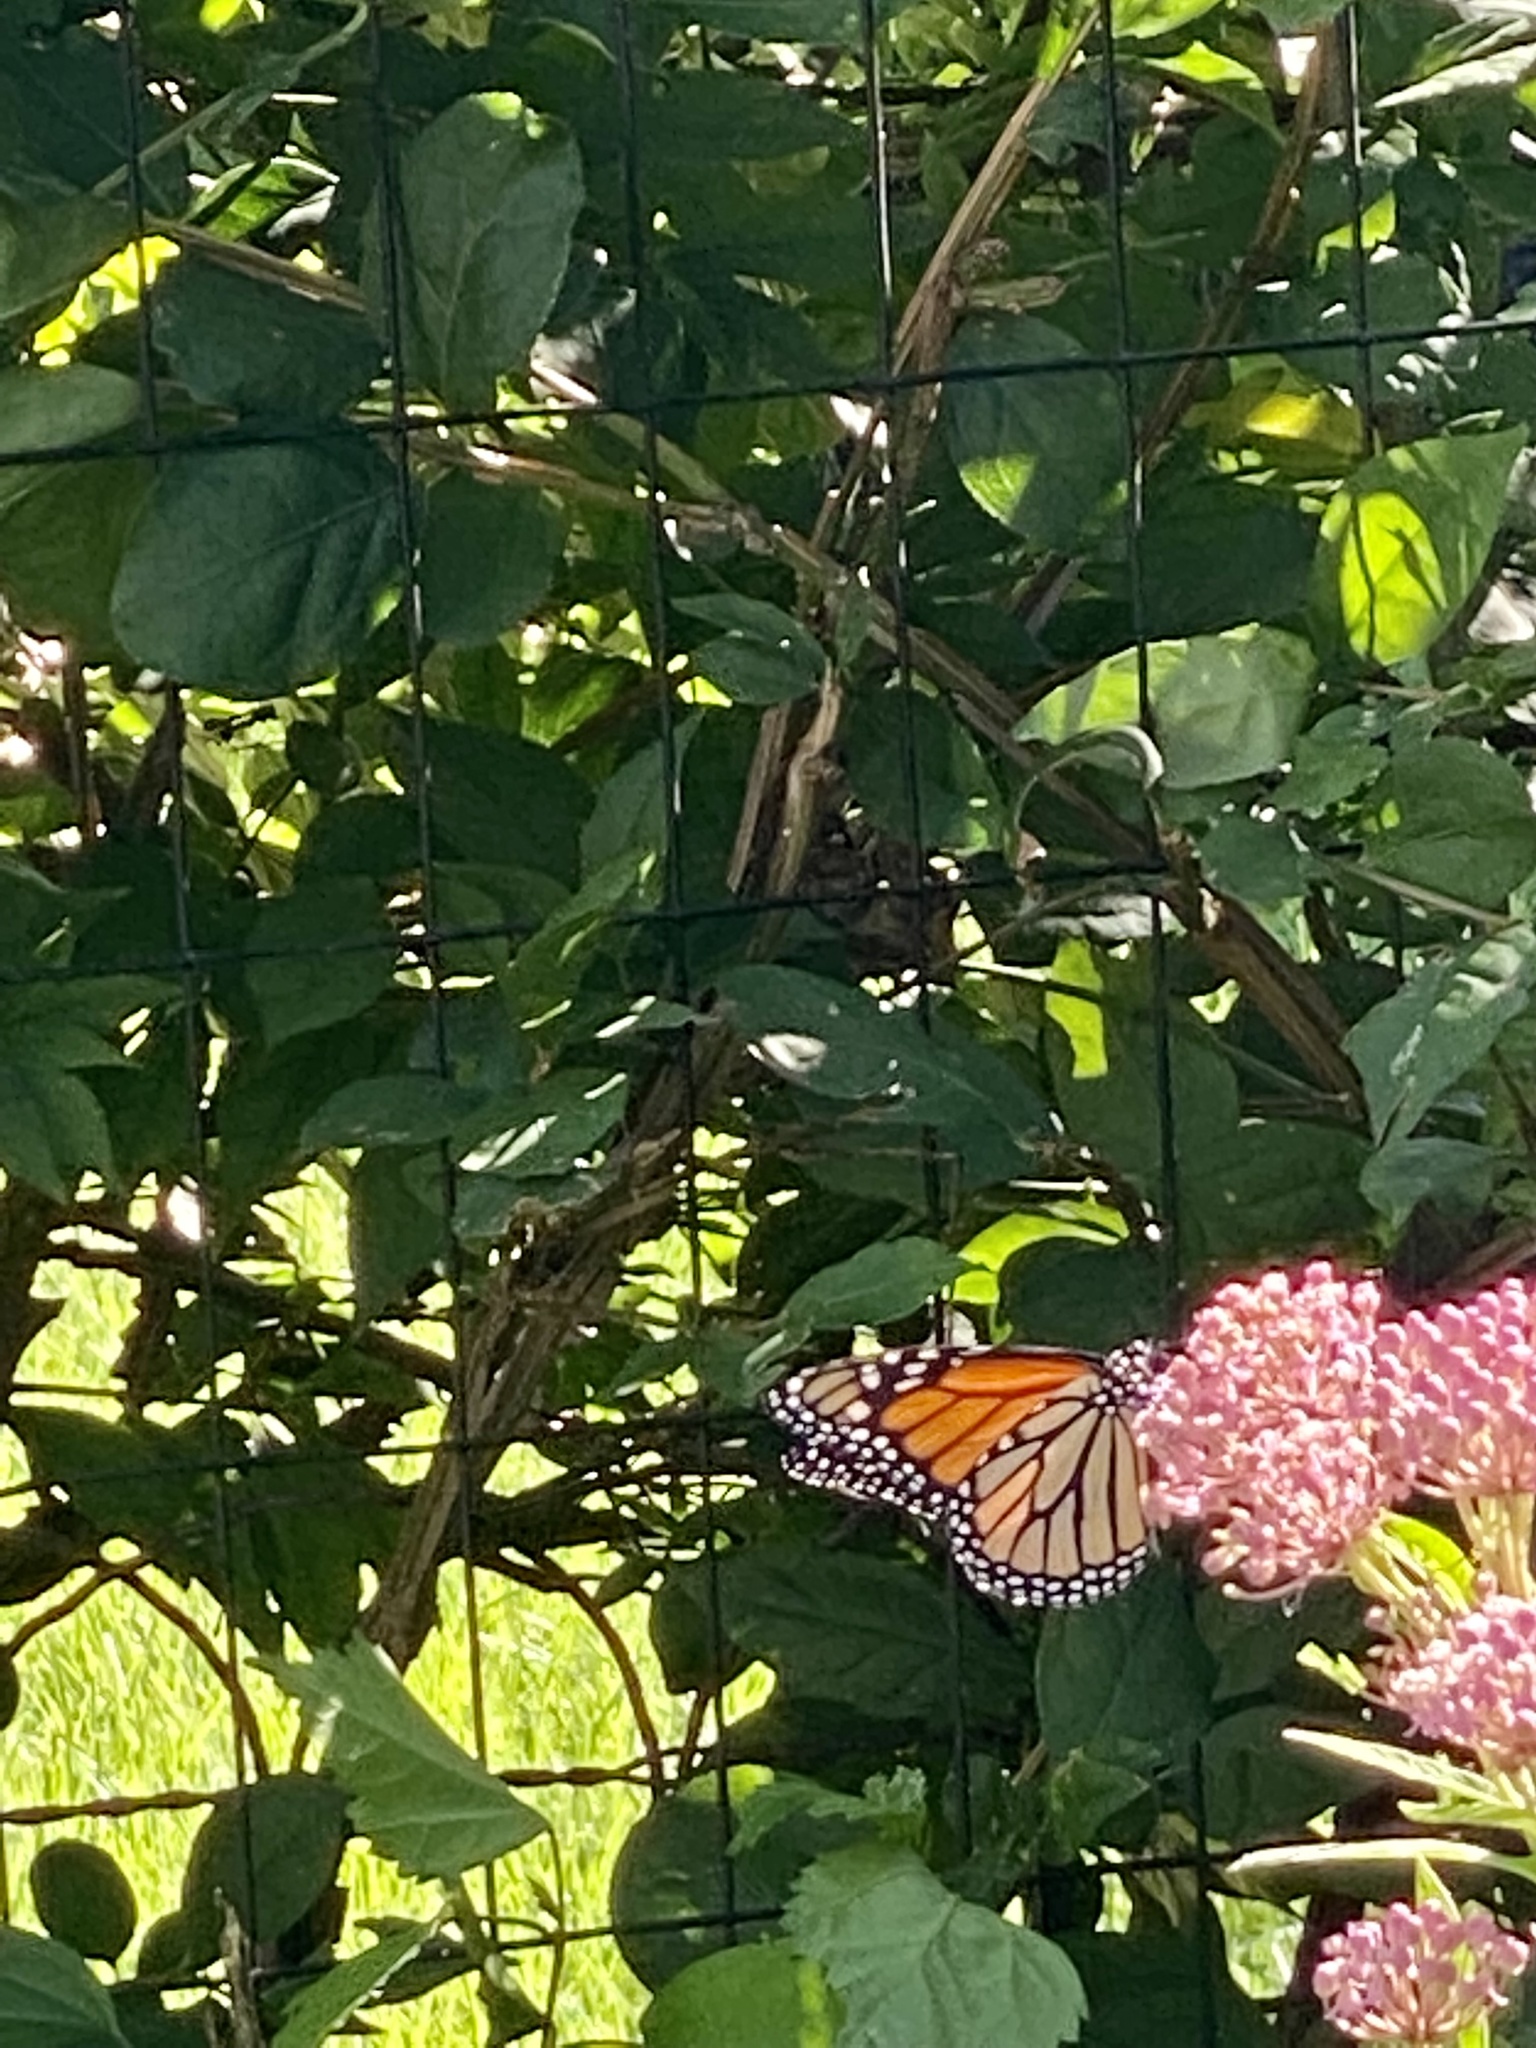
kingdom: Animalia
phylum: Arthropoda
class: Insecta
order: Lepidoptera
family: Nymphalidae
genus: Danaus
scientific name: Danaus plexippus
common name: Monarch
